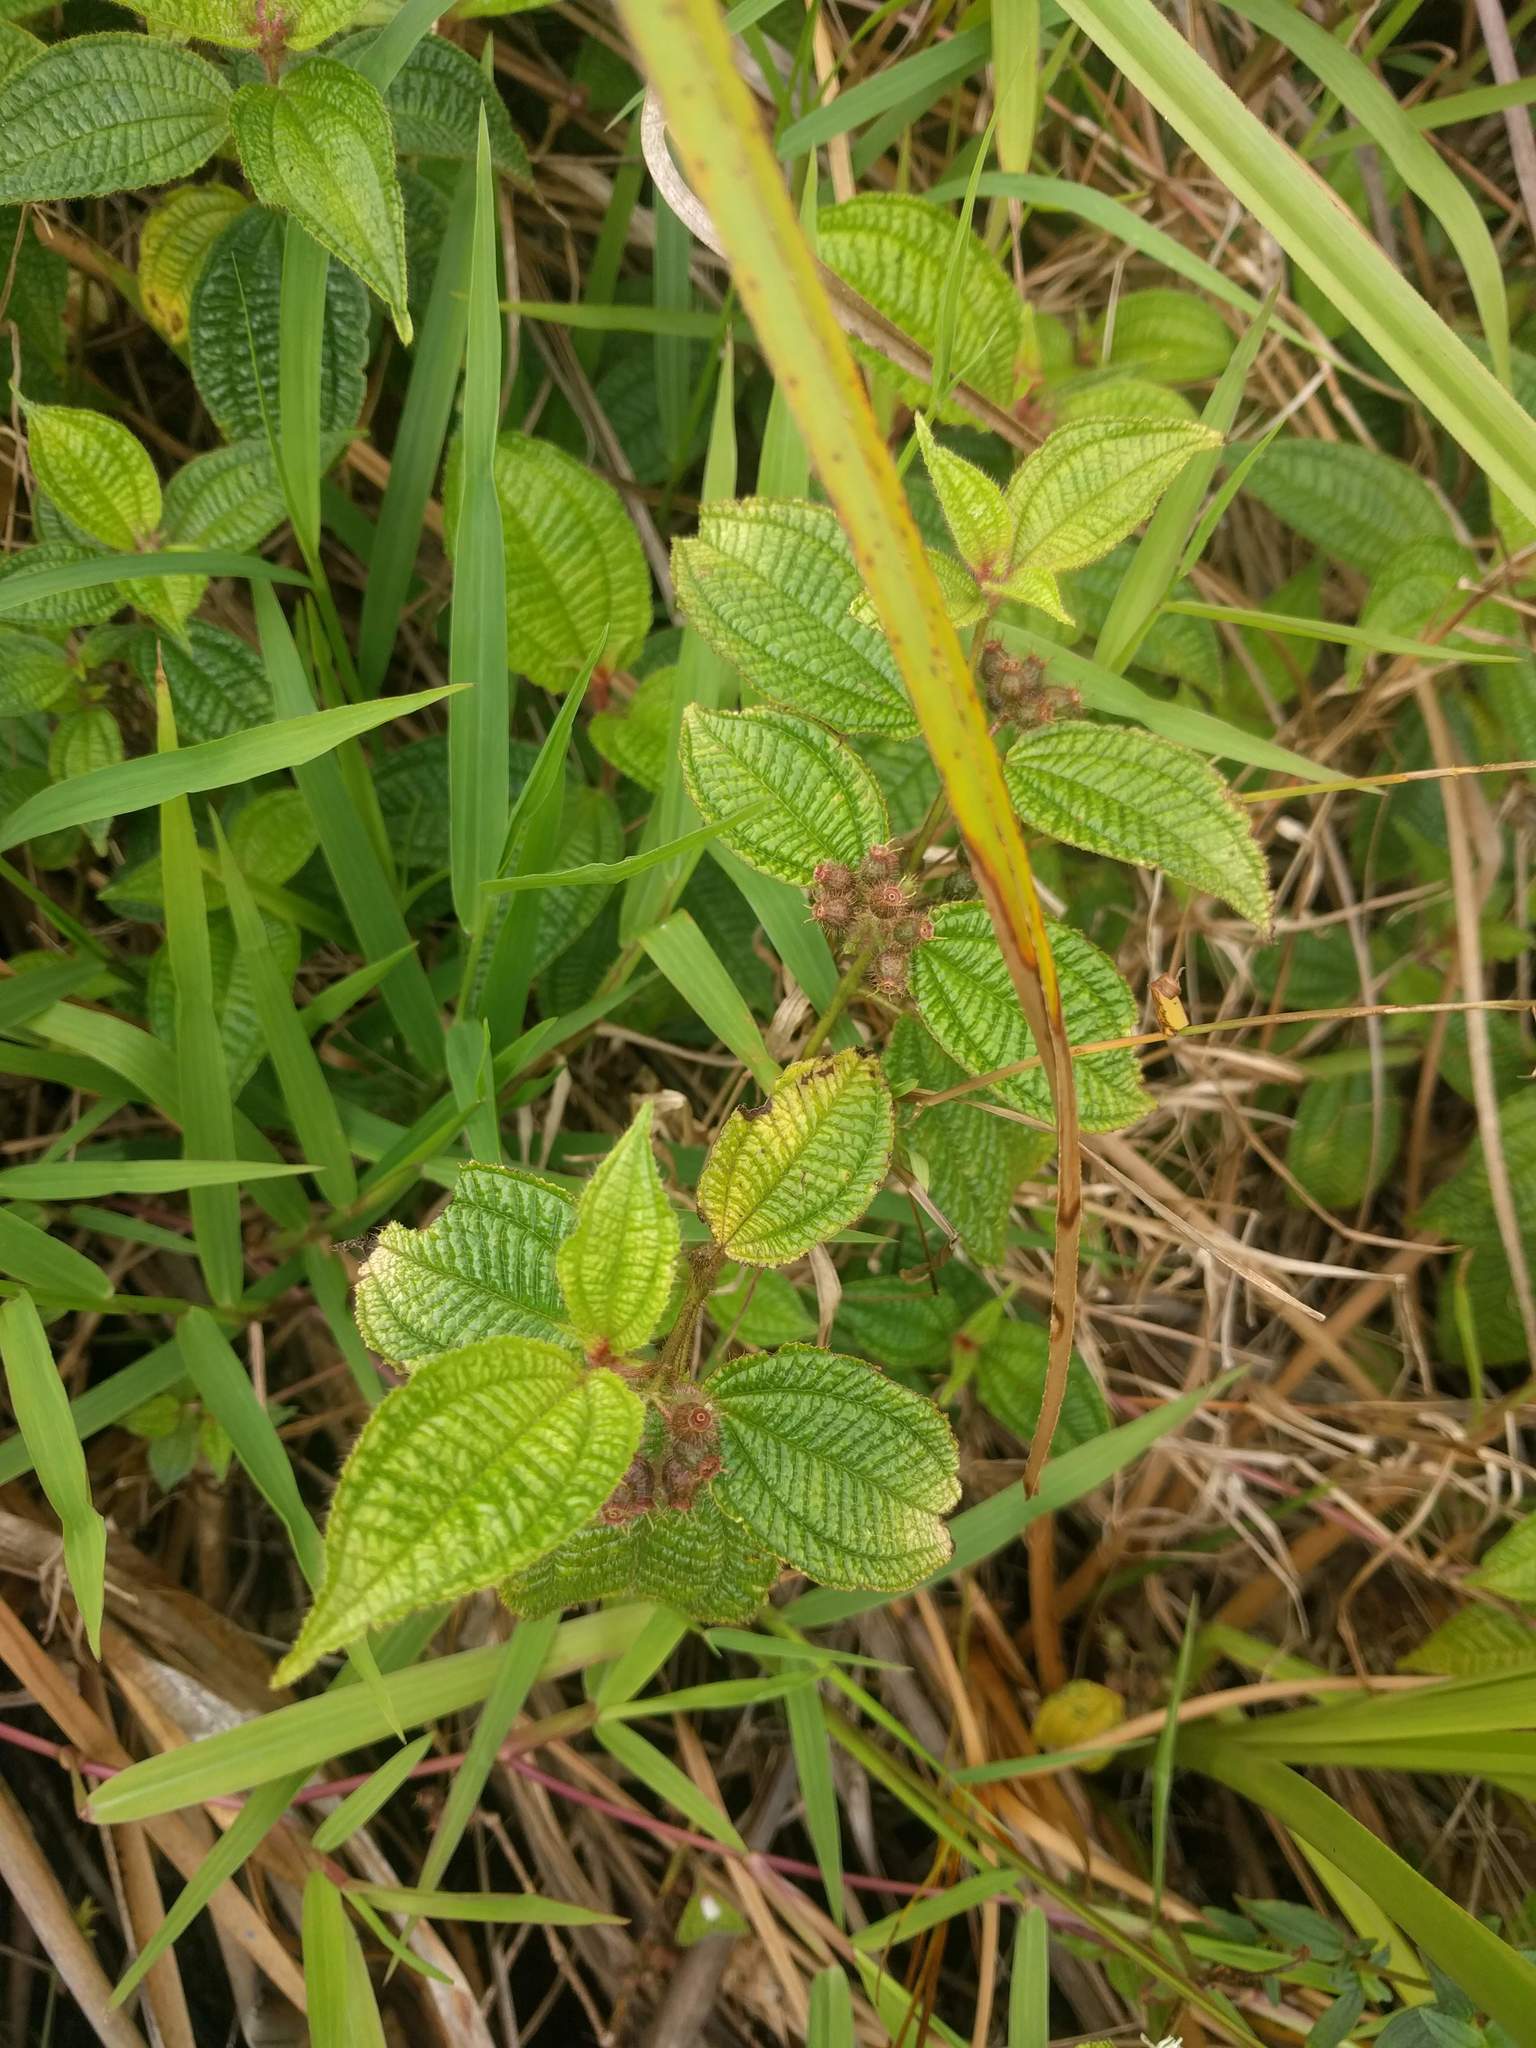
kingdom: Plantae
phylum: Tracheophyta
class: Magnoliopsida
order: Myrtales
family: Melastomataceae
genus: Miconia
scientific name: Miconia crenata
